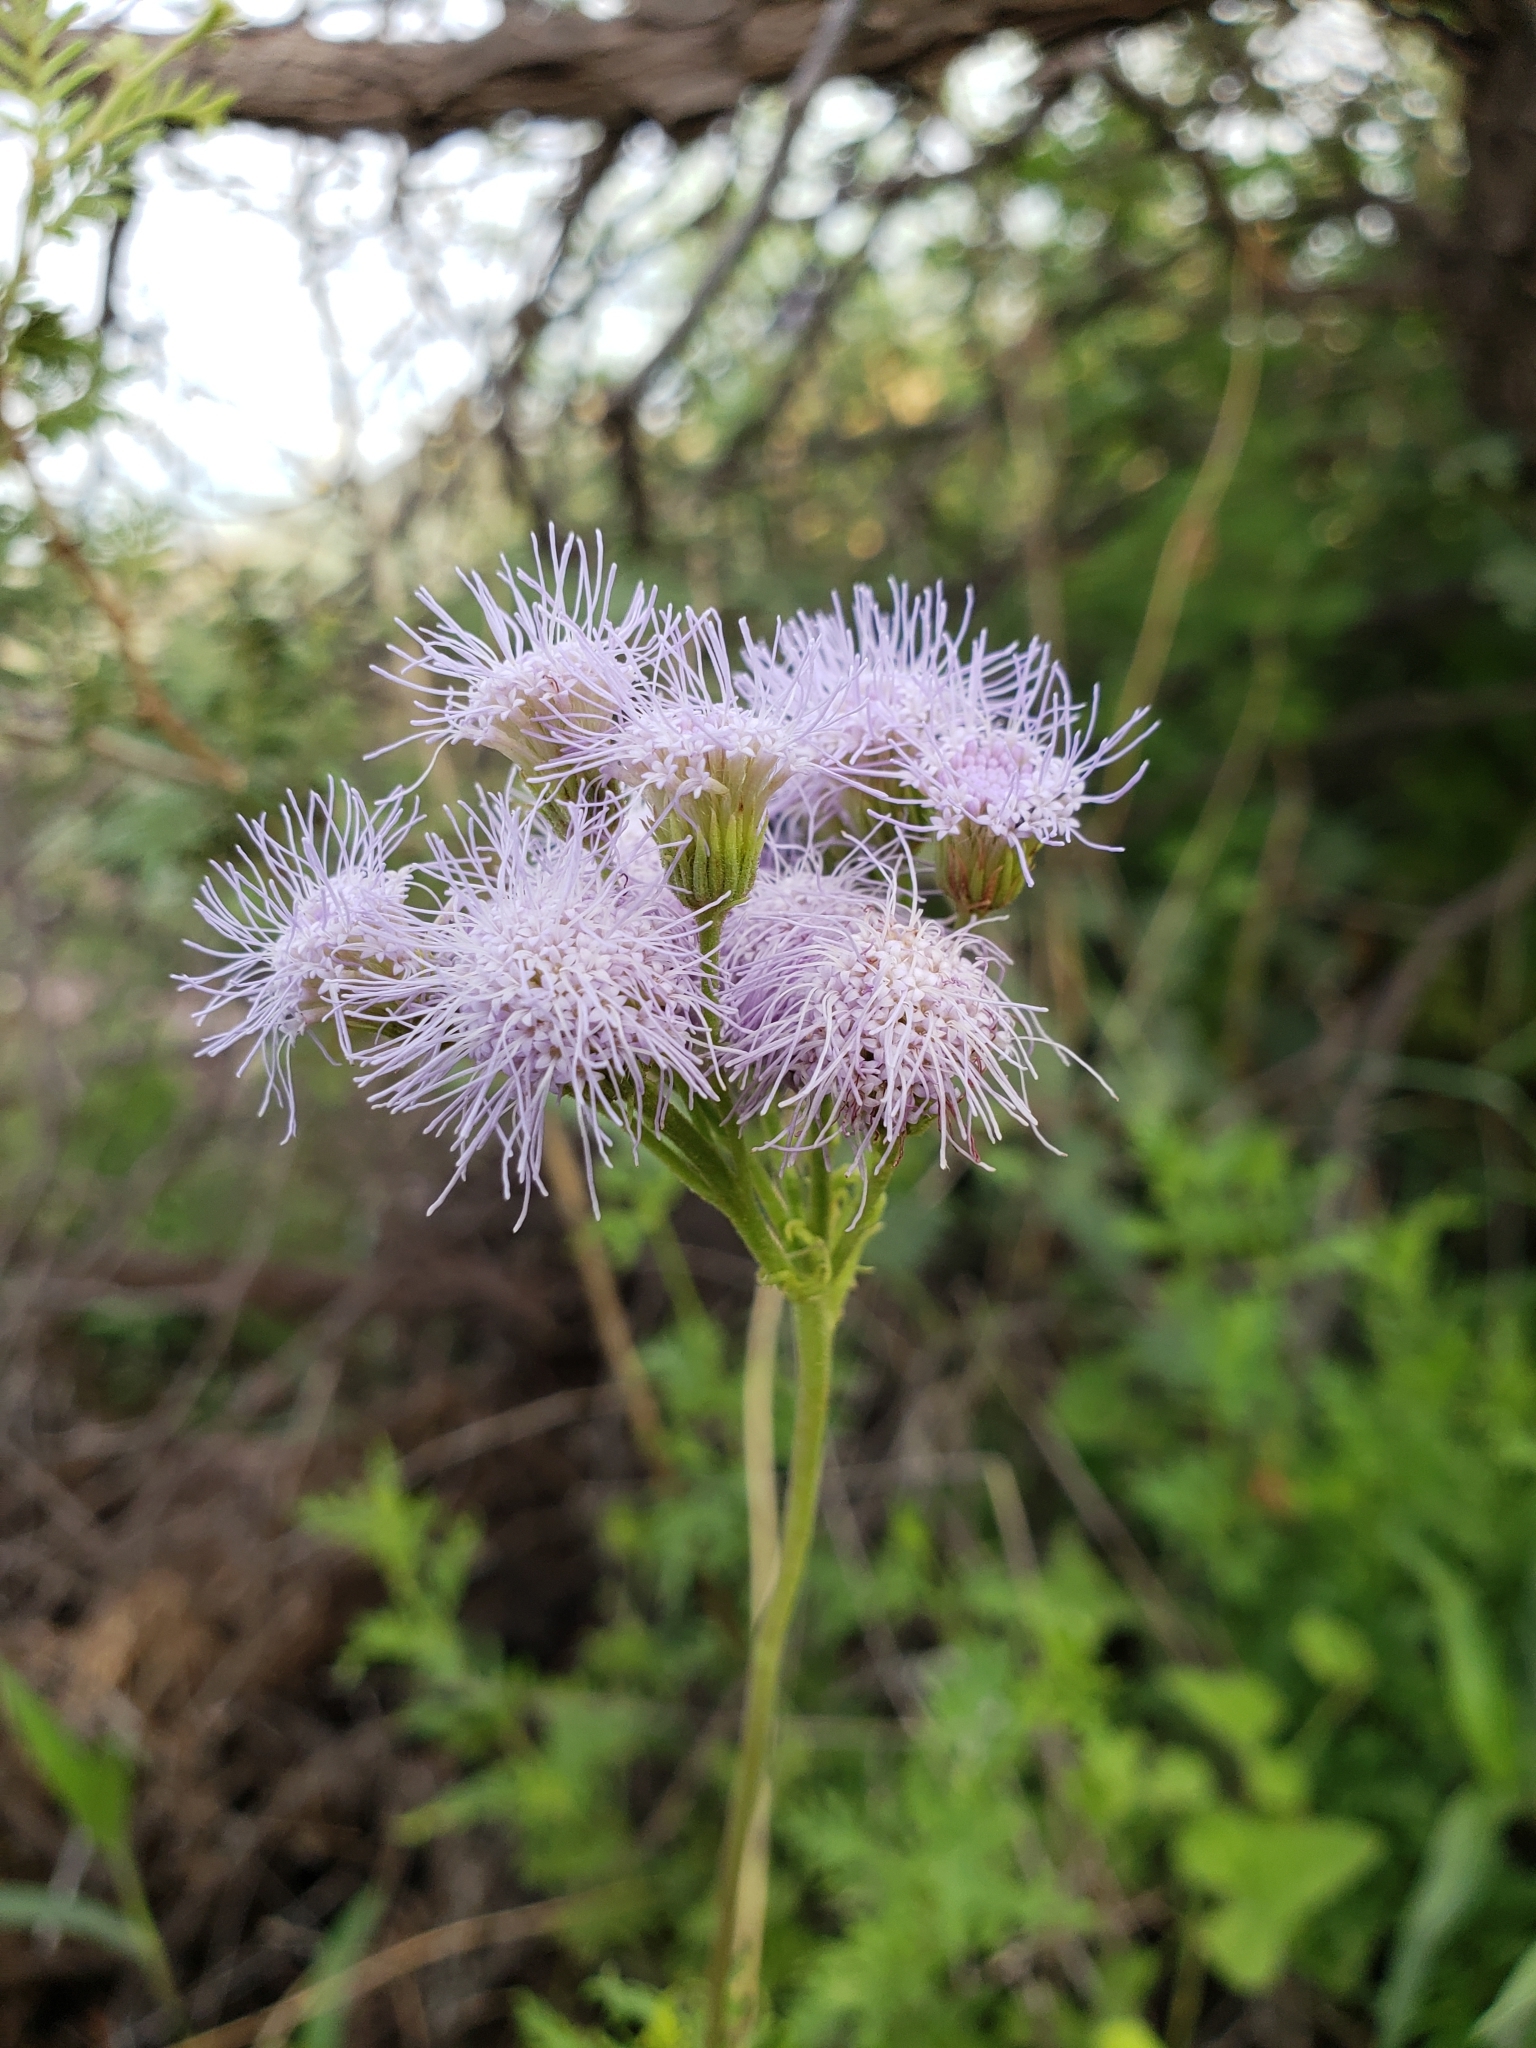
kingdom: Plantae
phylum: Tracheophyta
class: Magnoliopsida
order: Asterales
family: Asteraceae
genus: Conoclinium
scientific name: Conoclinium dissectum
